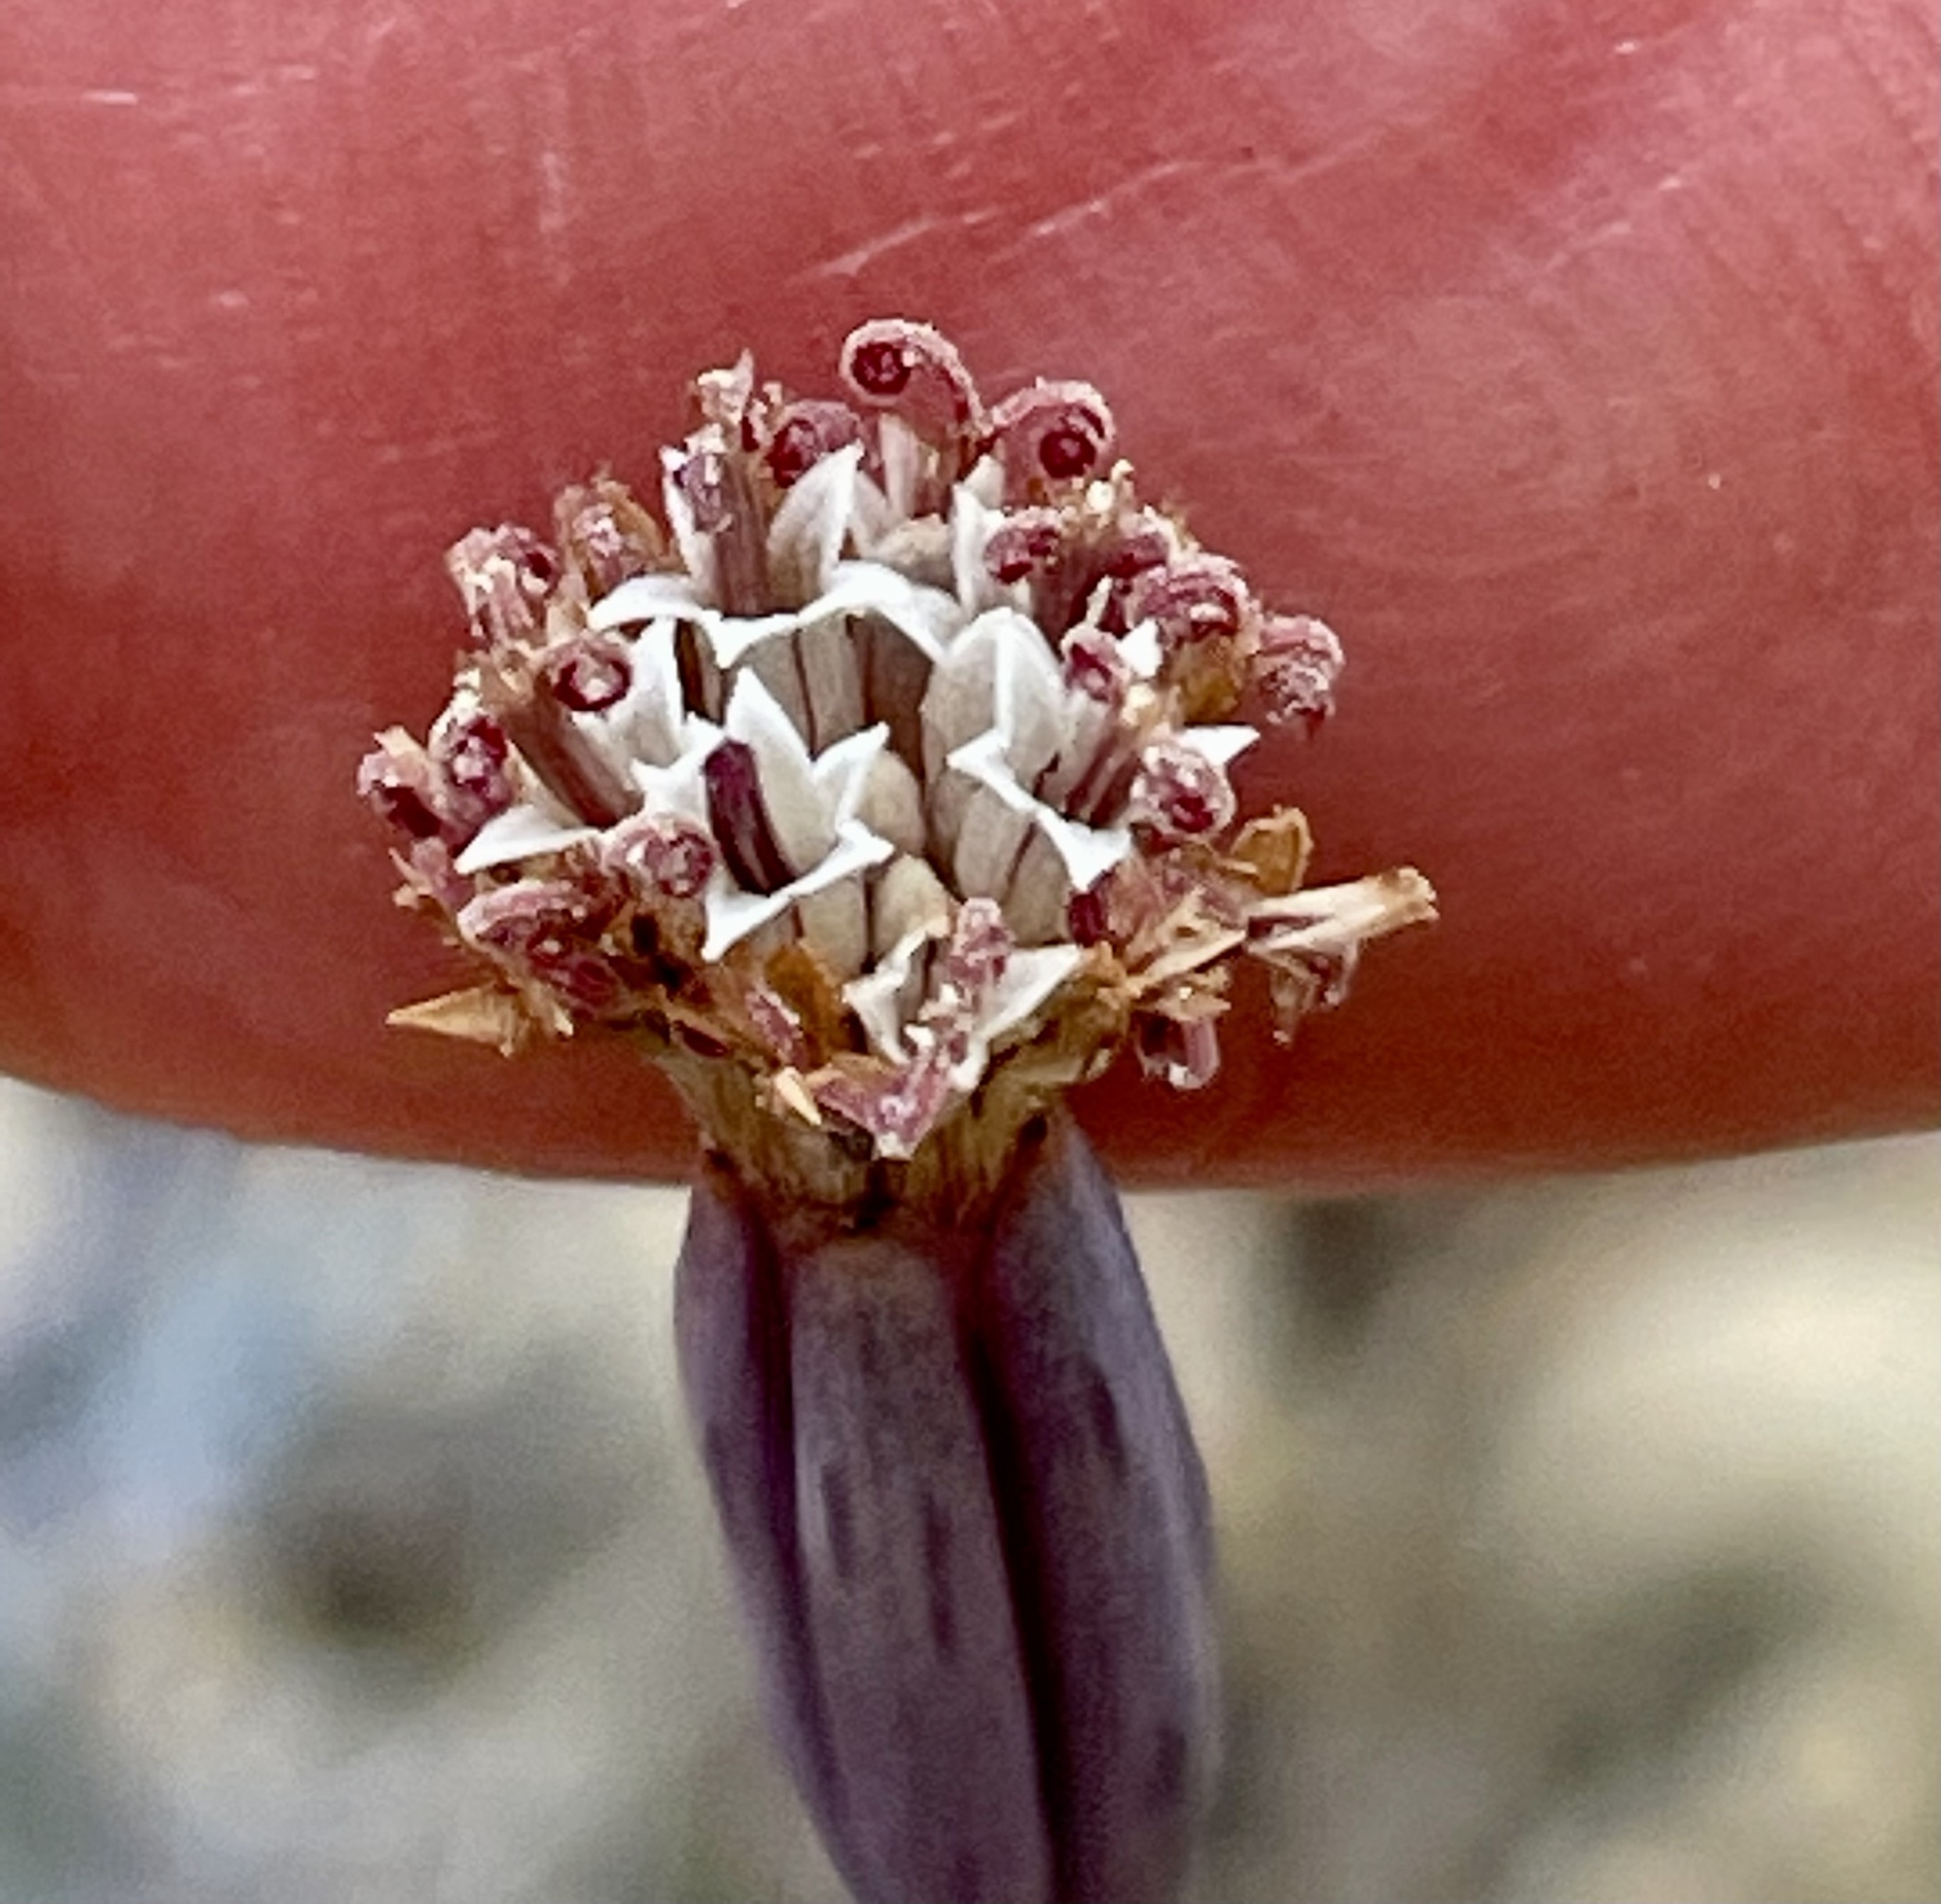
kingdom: Plantae
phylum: Tracheophyta
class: Magnoliopsida
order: Asterales
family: Asteraceae
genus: Porophyllum
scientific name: Porophyllum gracile
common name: Odora
